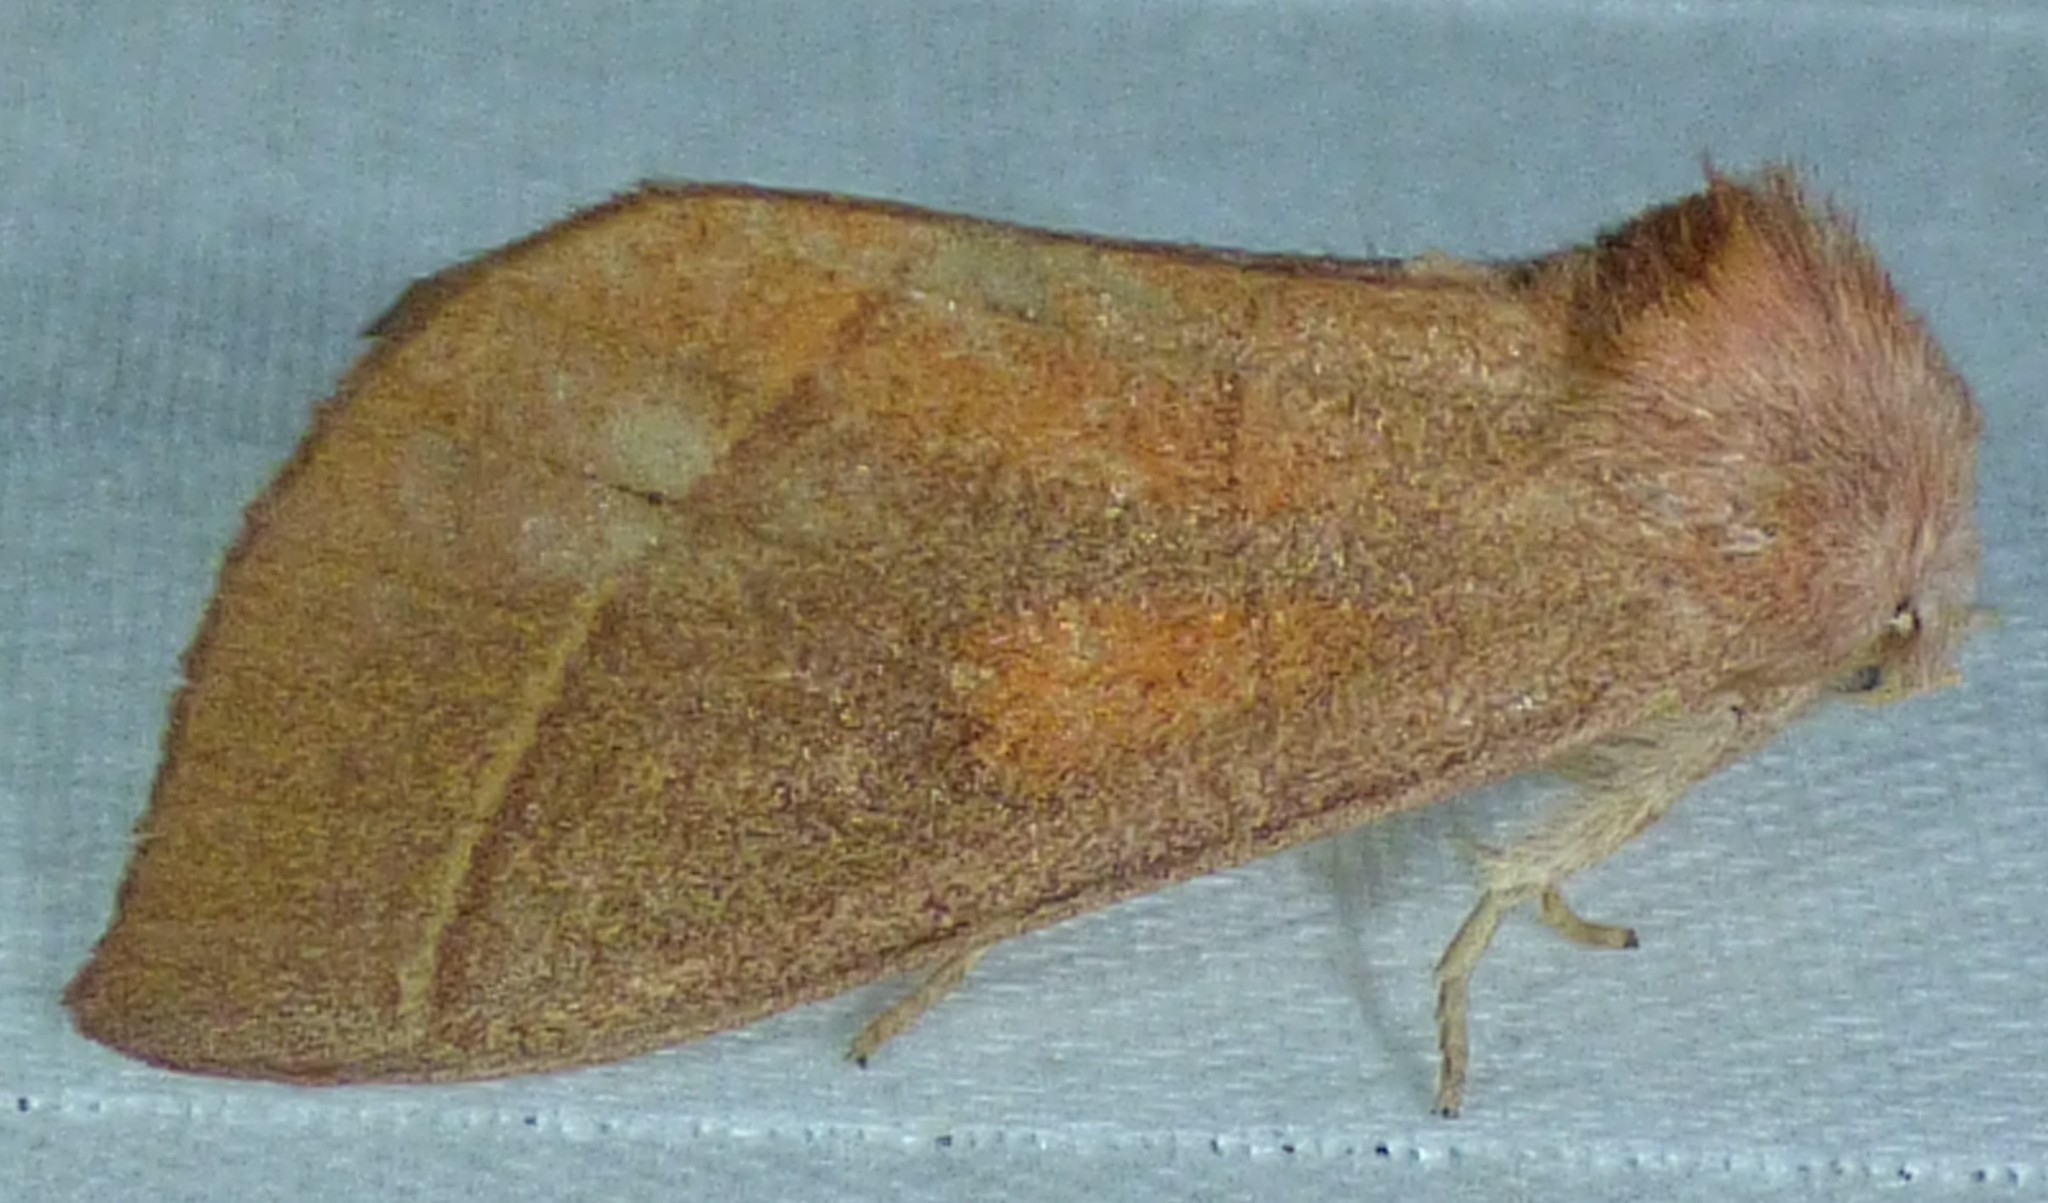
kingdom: Animalia
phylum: Arthropoda
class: Insecta
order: Lepidoptera
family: Notodontidae
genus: Nadata
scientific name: Nadata gibbosa
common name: White-dotted prominent
